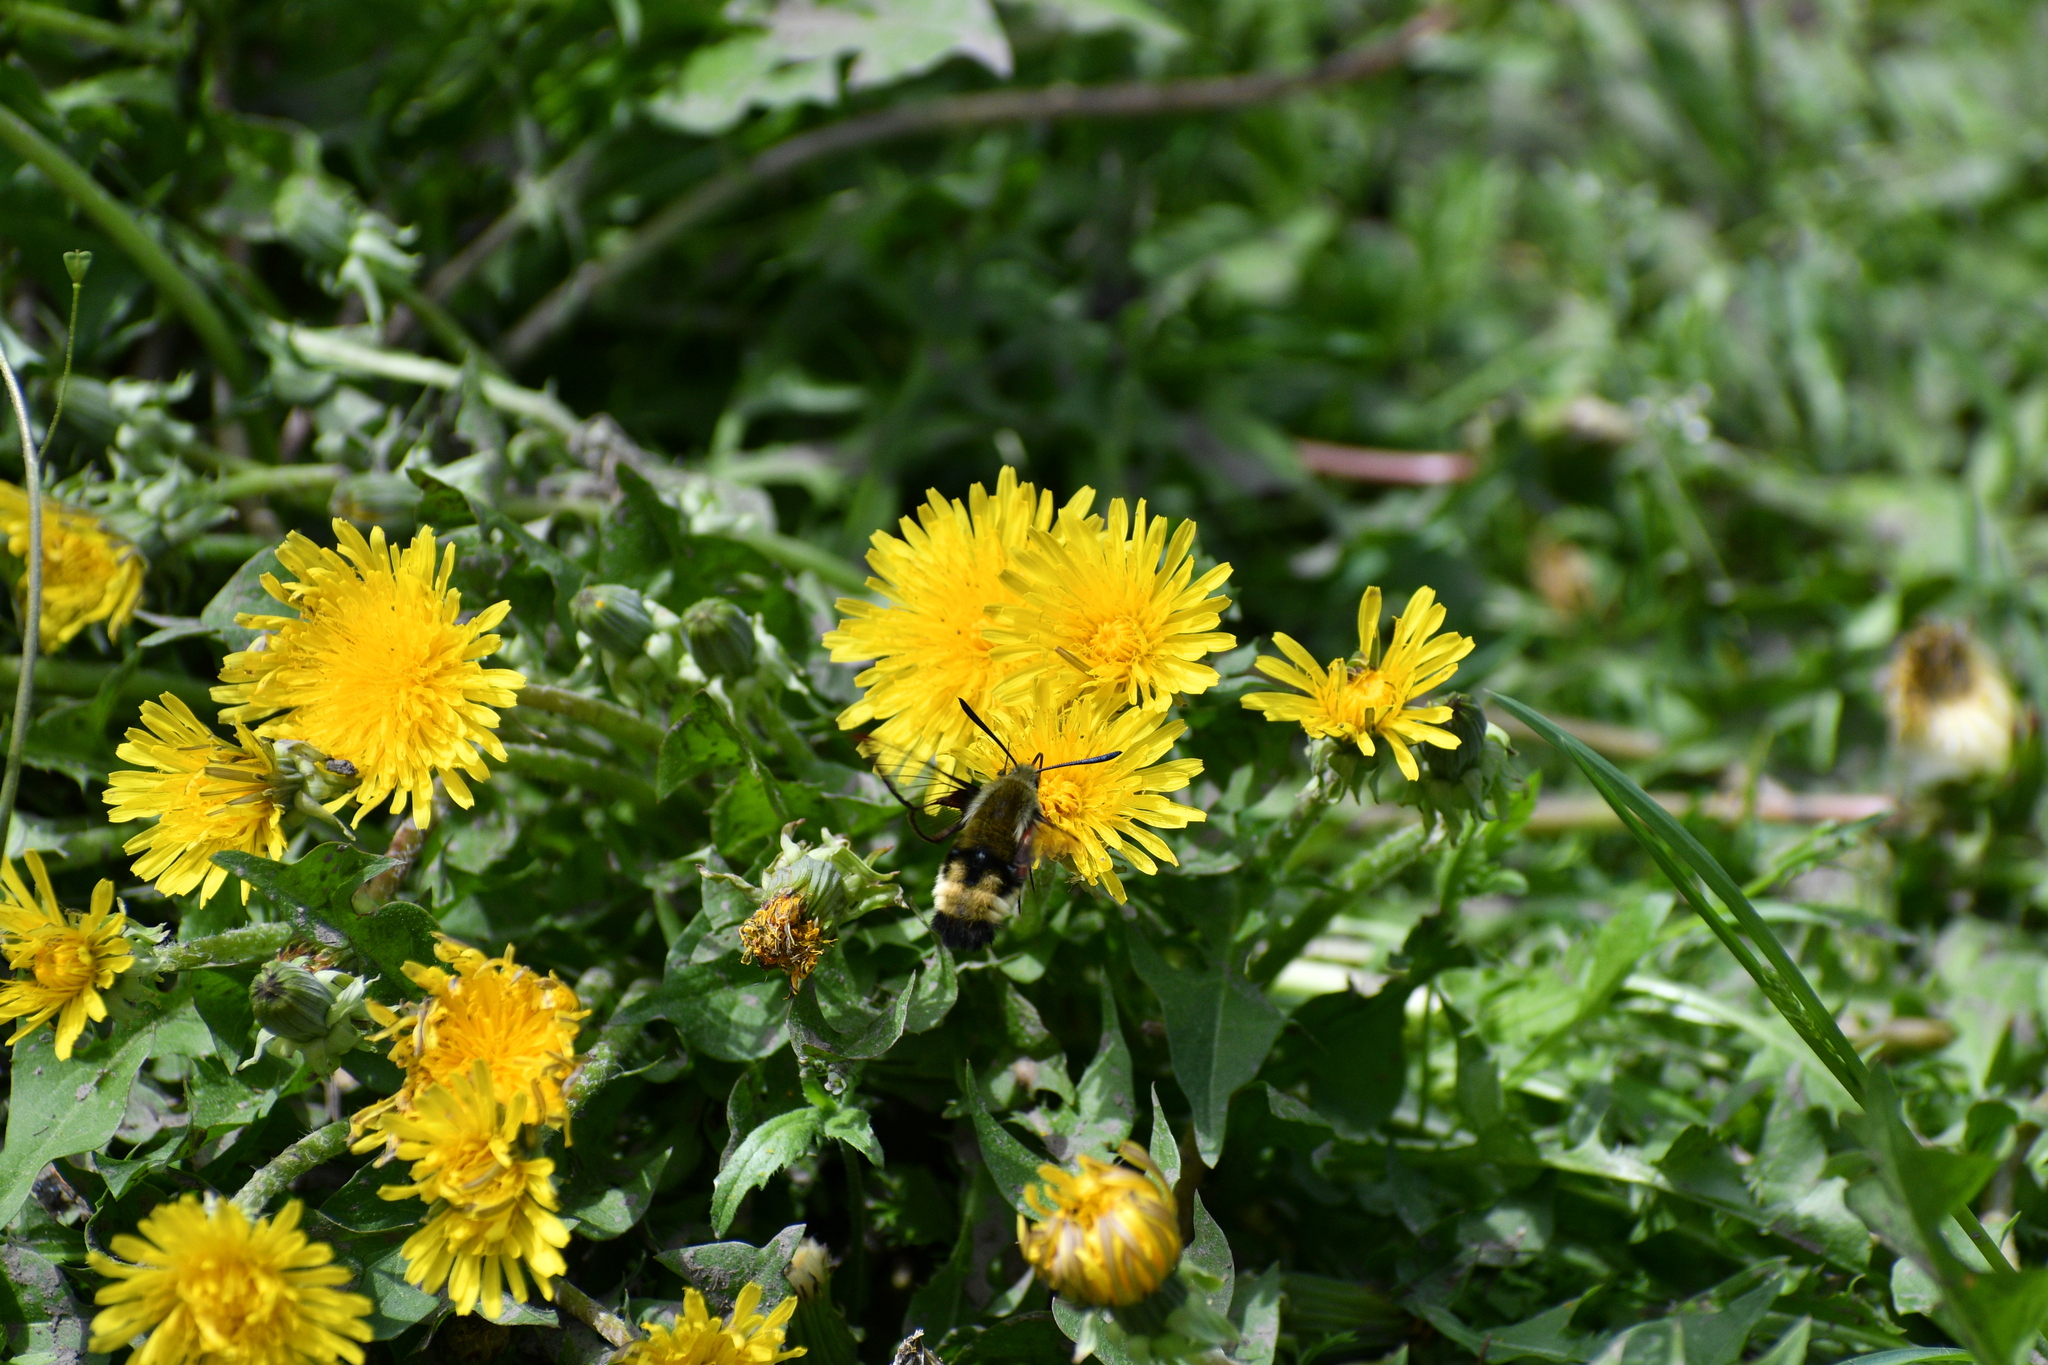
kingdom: Animalia
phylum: Arthropoda
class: Insecta
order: Lepidoptera
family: Sphingidae
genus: Hemaris
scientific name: Hemaris thetis
